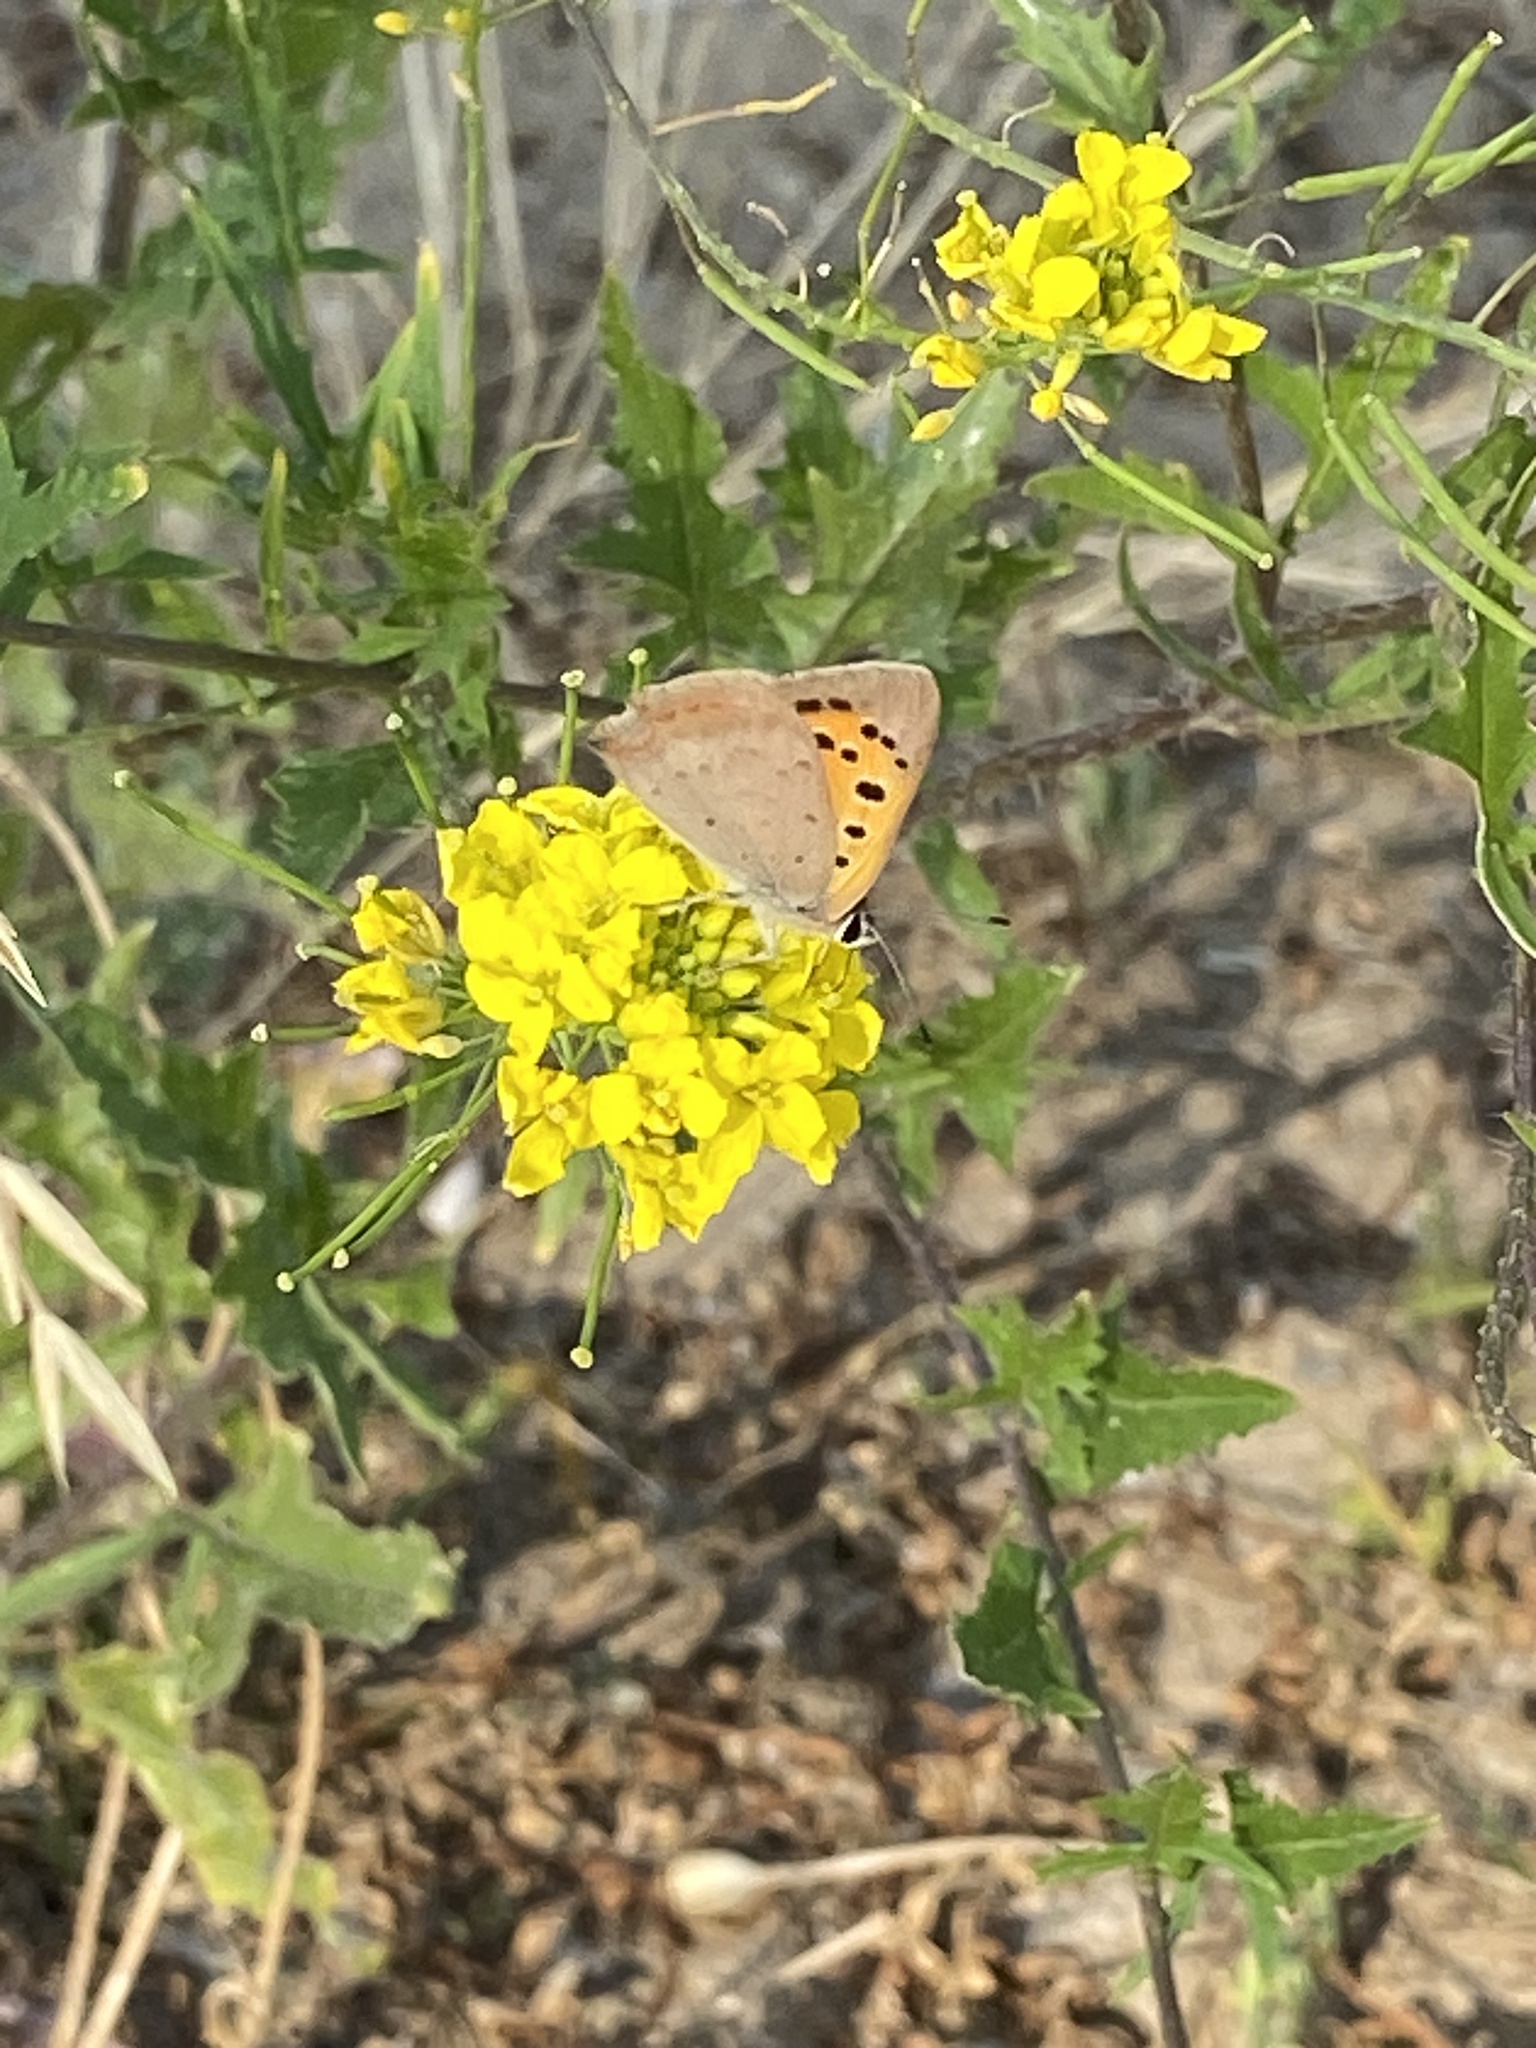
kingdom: Animalia
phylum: Arthropoda
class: Insecta
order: Lepidoptera
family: Lycaenidae
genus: Lycaena
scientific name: Lycaena phlaeas
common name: Small copper
